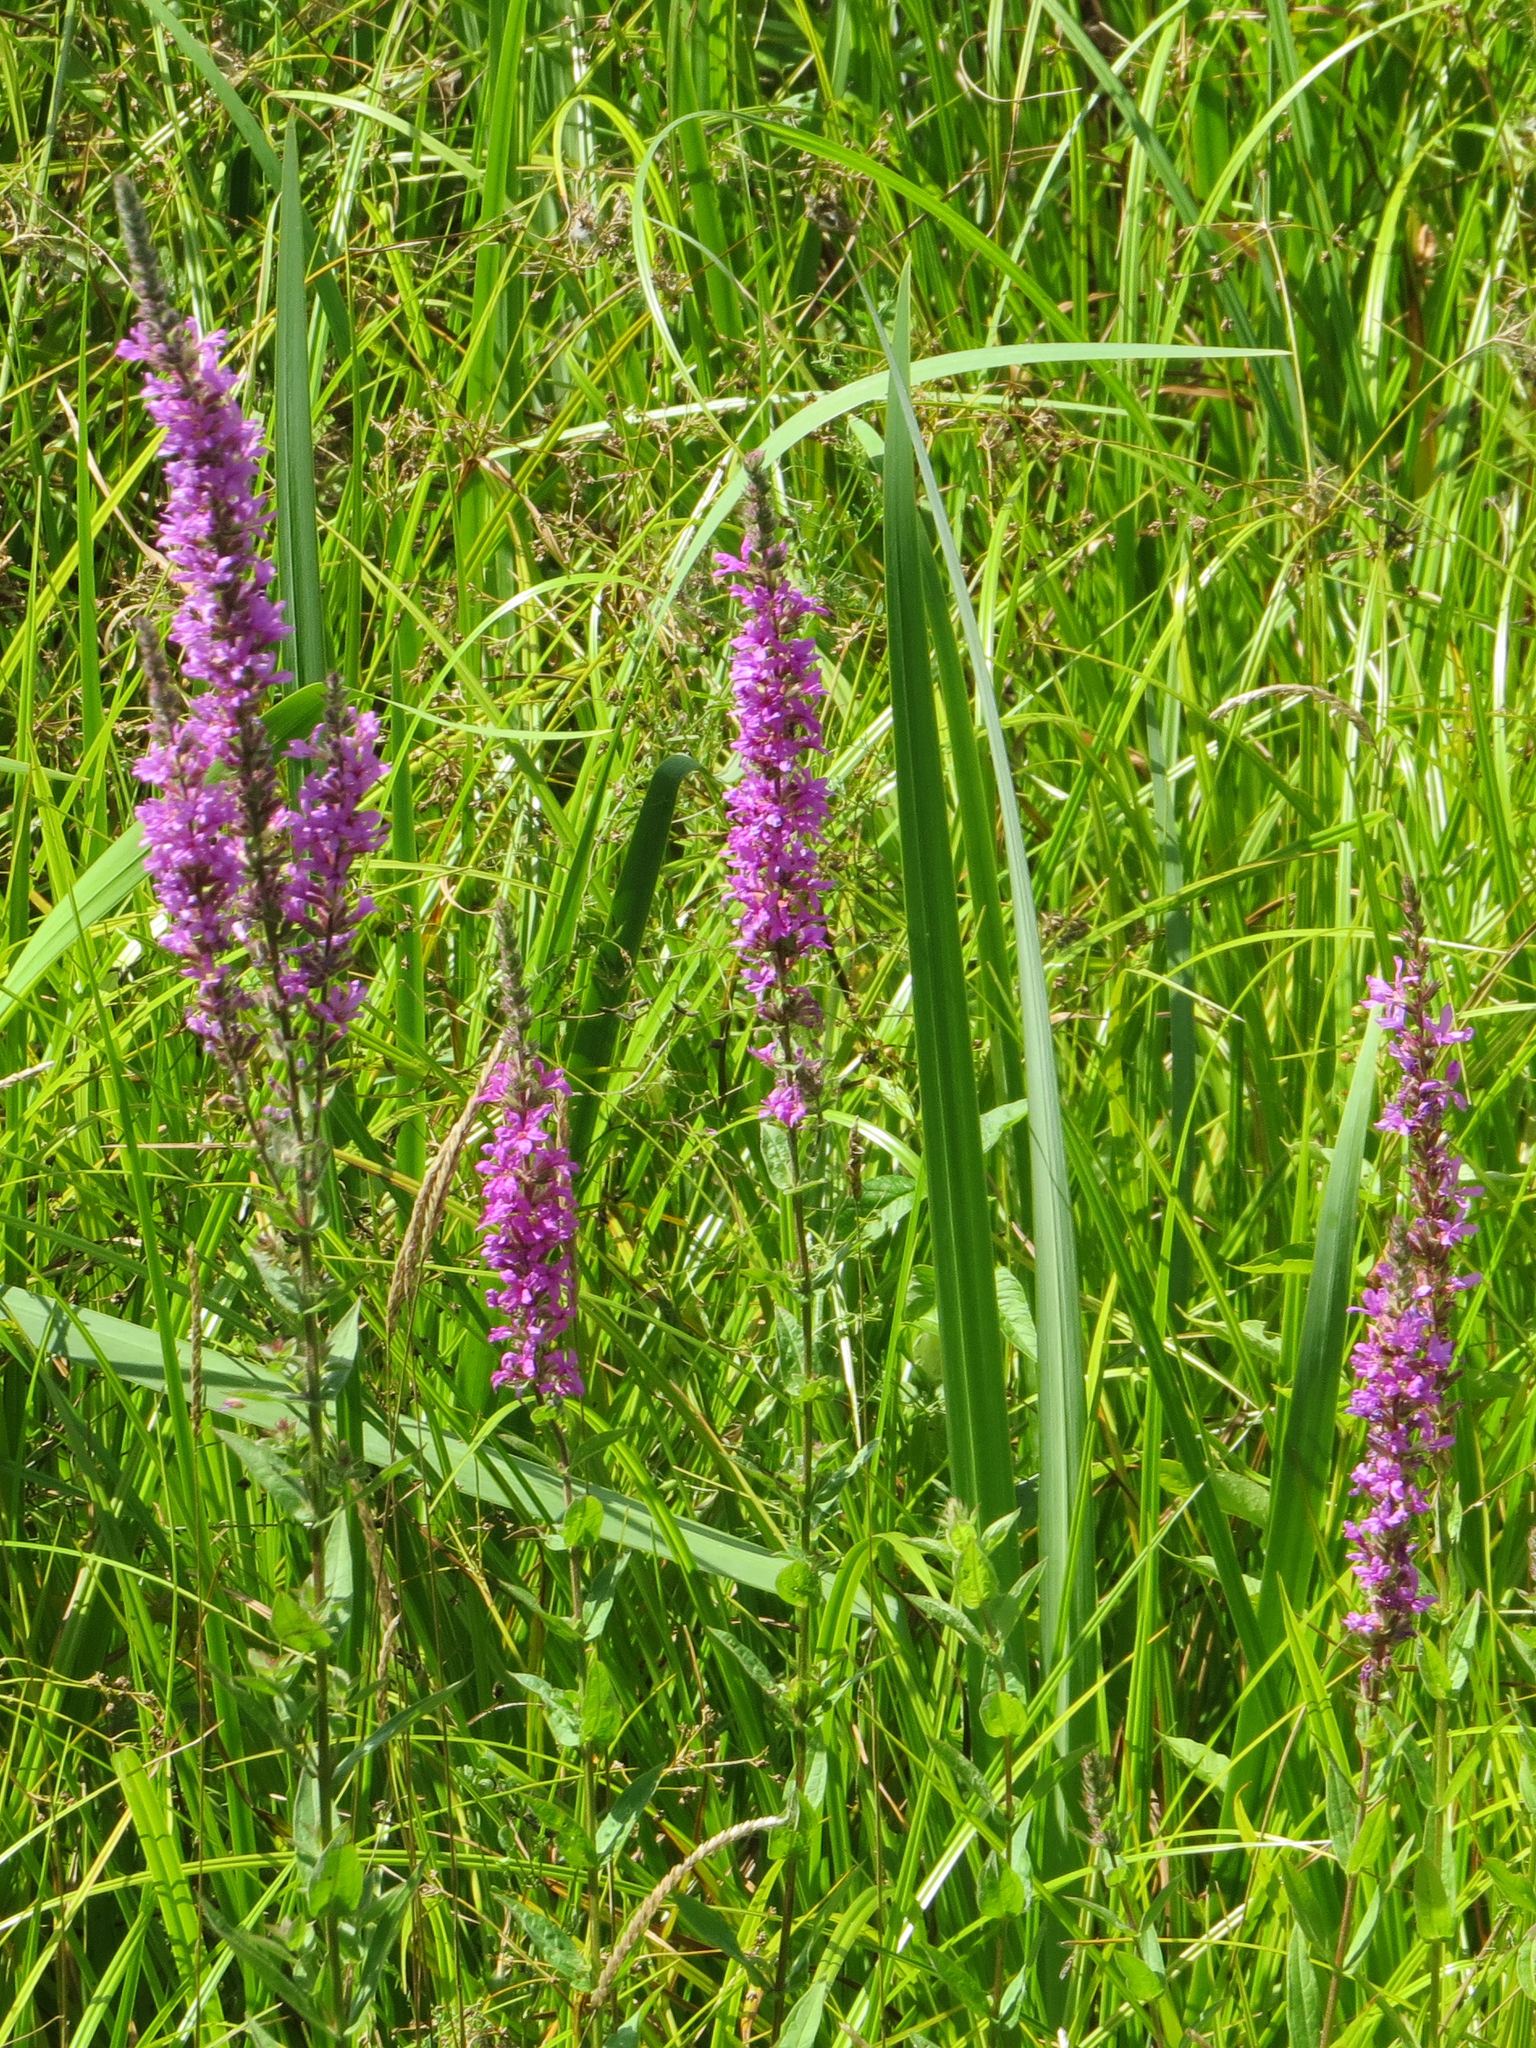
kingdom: Plantae
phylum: Tracheophyta
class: Magnoliopsida
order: Myrtales
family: Lythraceae
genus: Lythrum
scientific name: Lythrum salicaria
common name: Purple loosestrife
